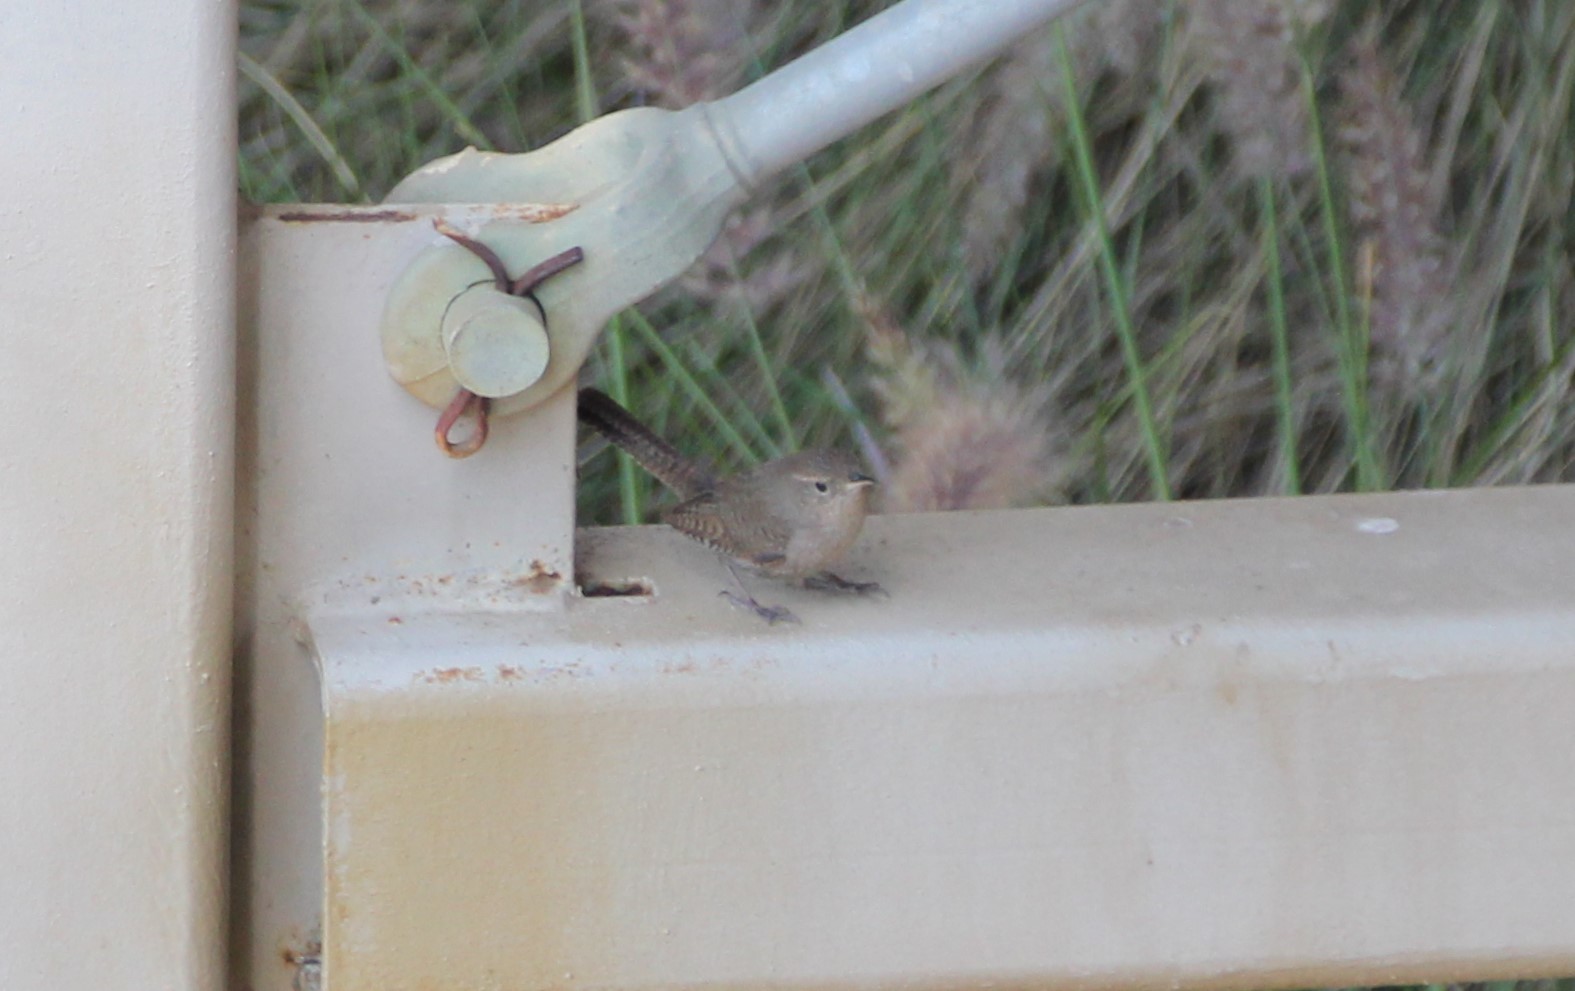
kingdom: Animalia
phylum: Chordata
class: Aves
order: Passeriformes
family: Troglodytidae
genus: Troglodytes
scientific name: Troglodytes aedon
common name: House wren
